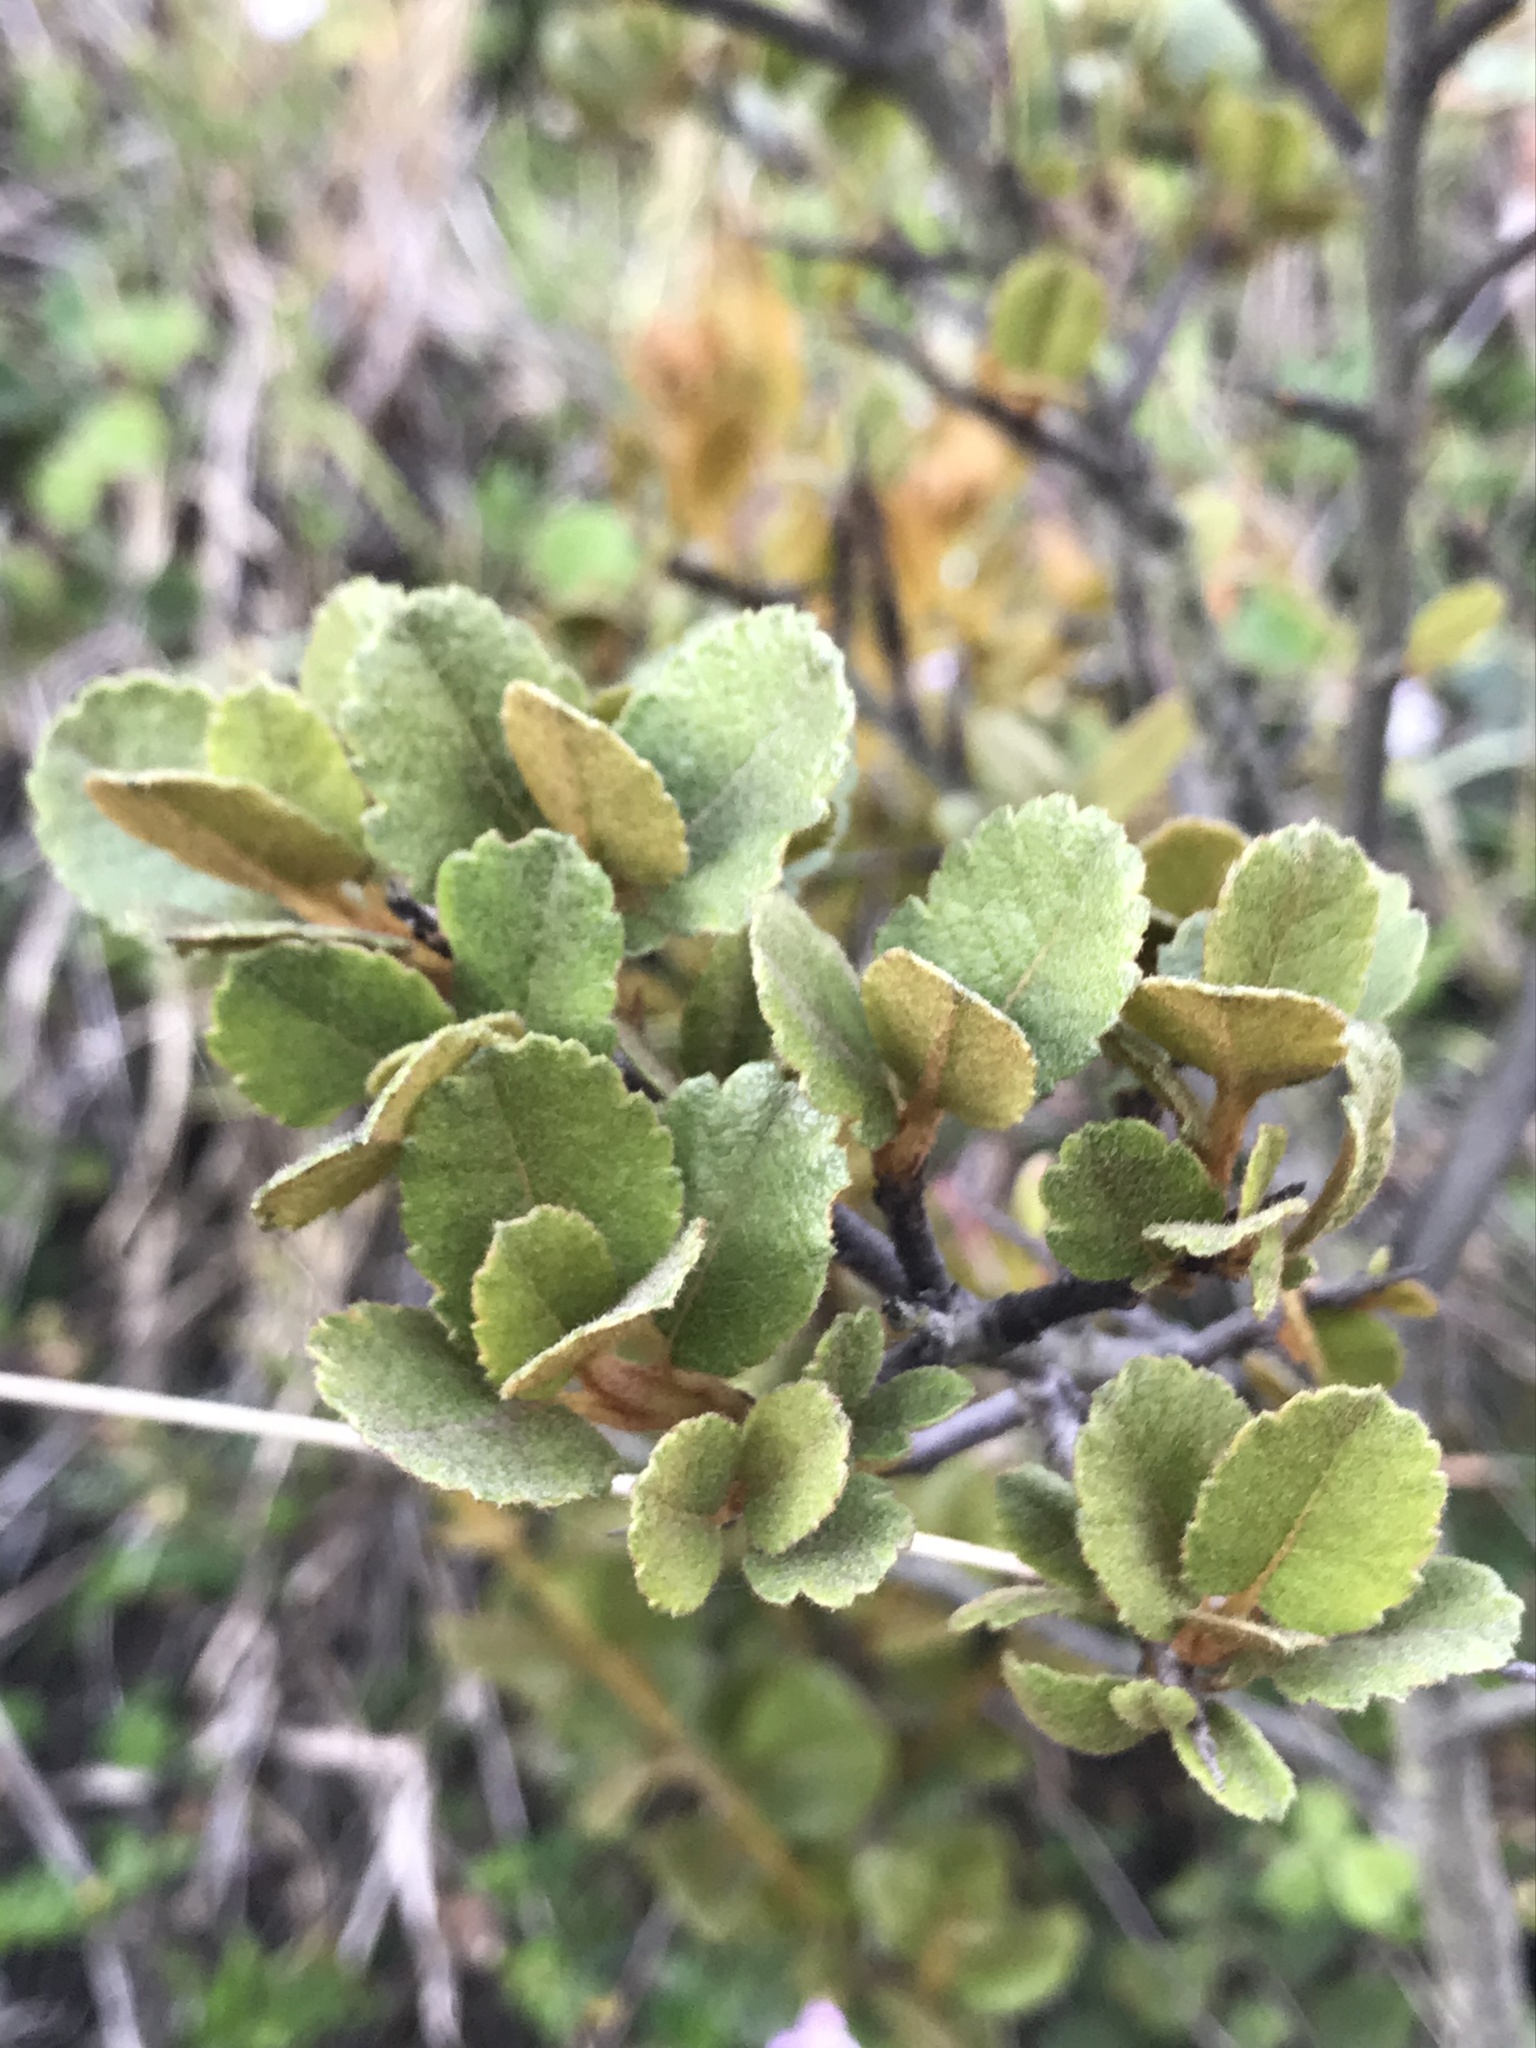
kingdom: Plantae
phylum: Tracheophyta
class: Magnoliopsida
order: Rosales
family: Rosaceae
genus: Hesperomeles
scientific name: Hesperomeles goudotiana
